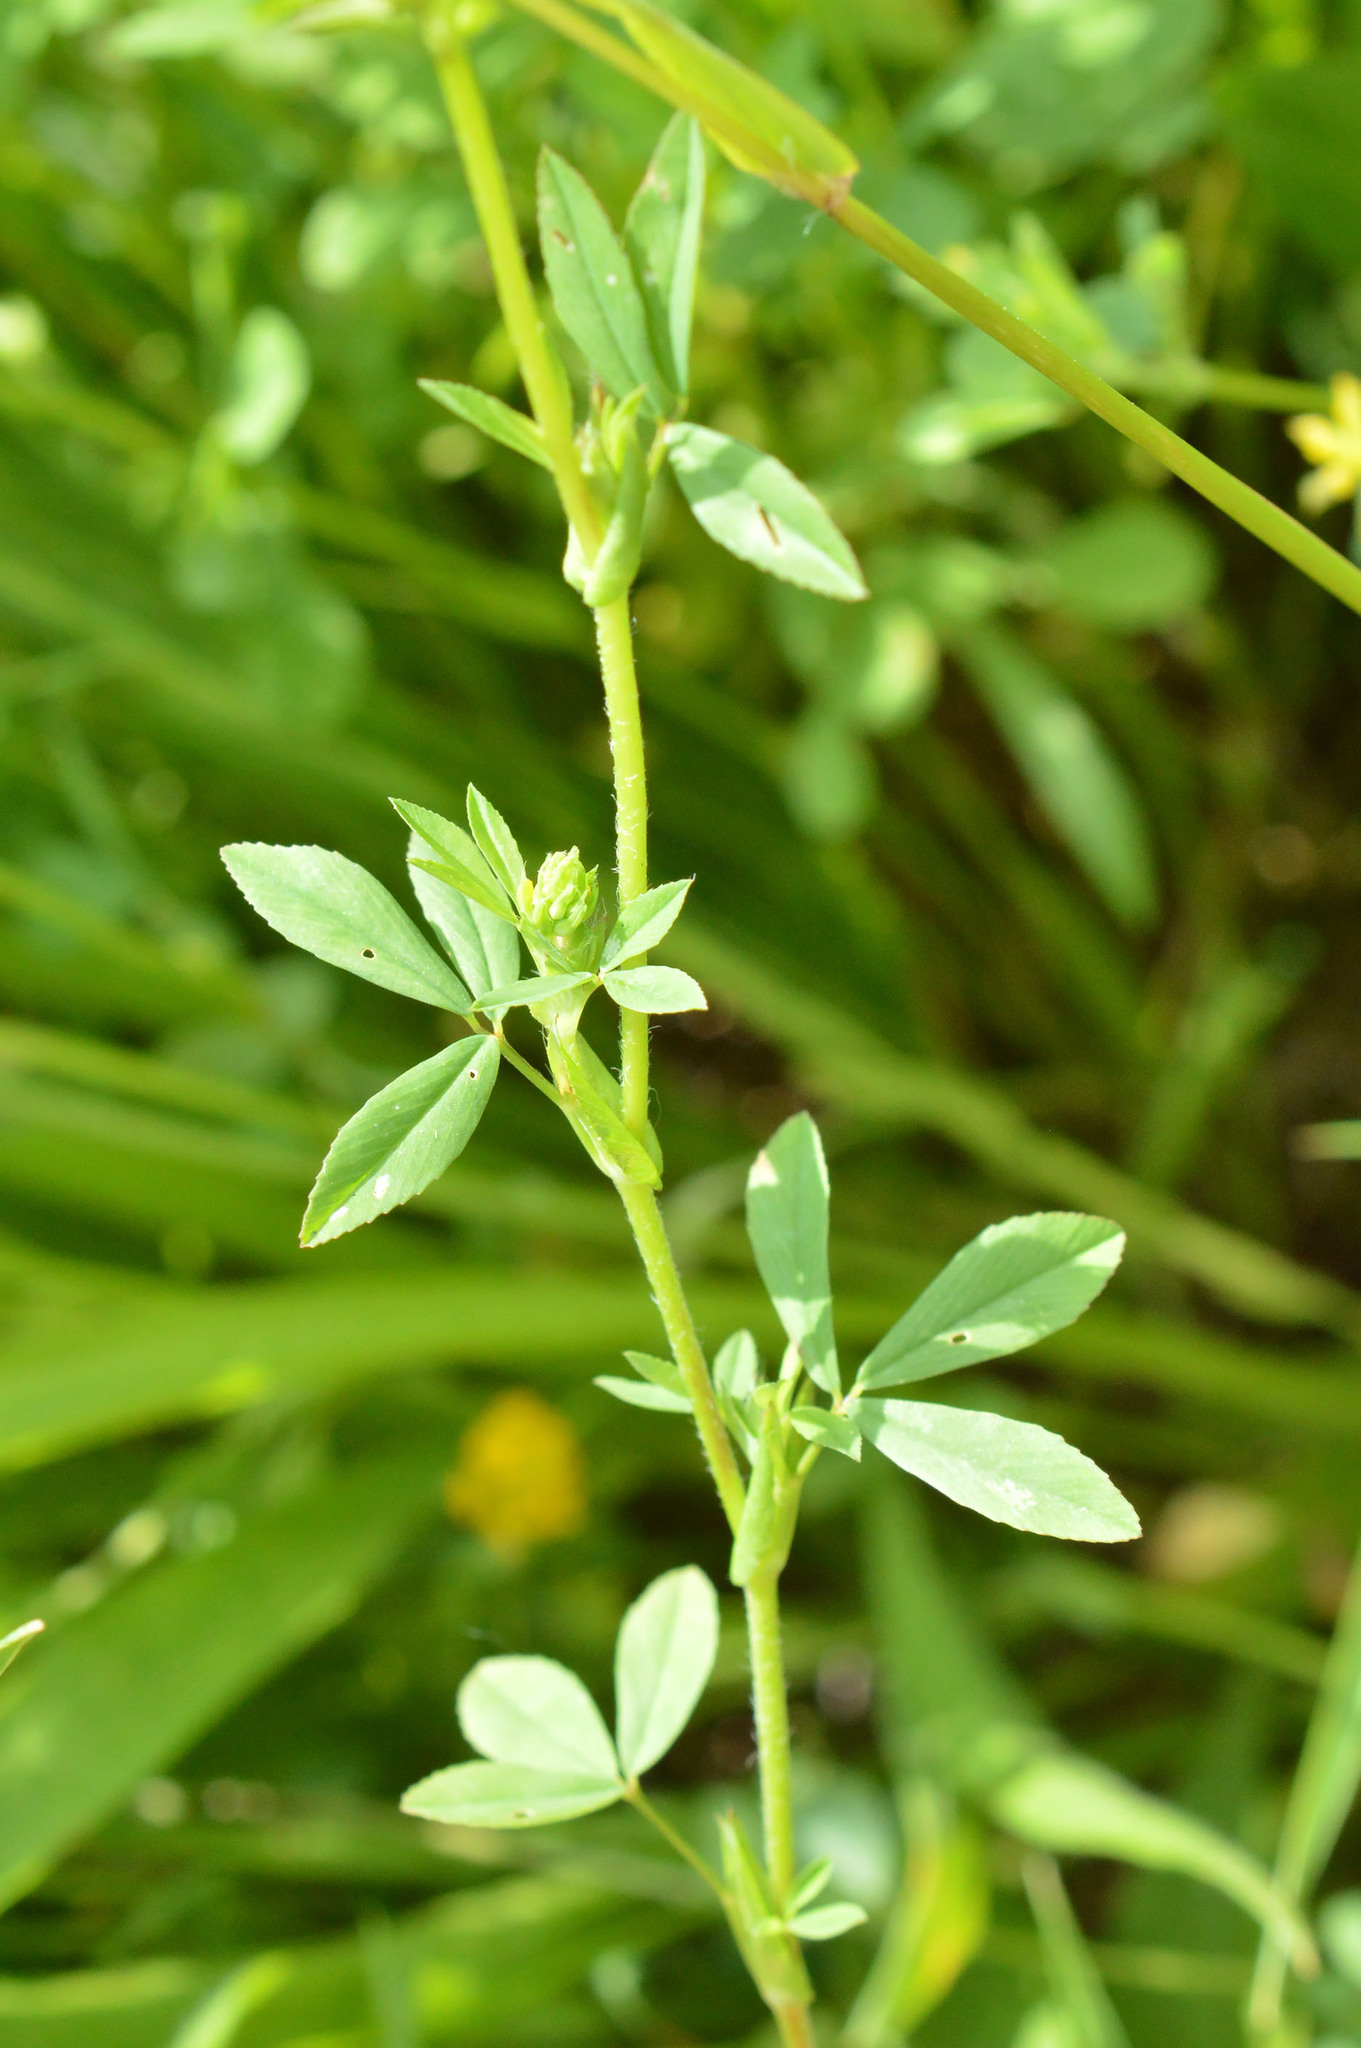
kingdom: Plantae
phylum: Tracheophyta
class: Magnoliopsida
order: Fabales
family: Fabaceae
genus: Trifolium
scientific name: Trifolium patens
